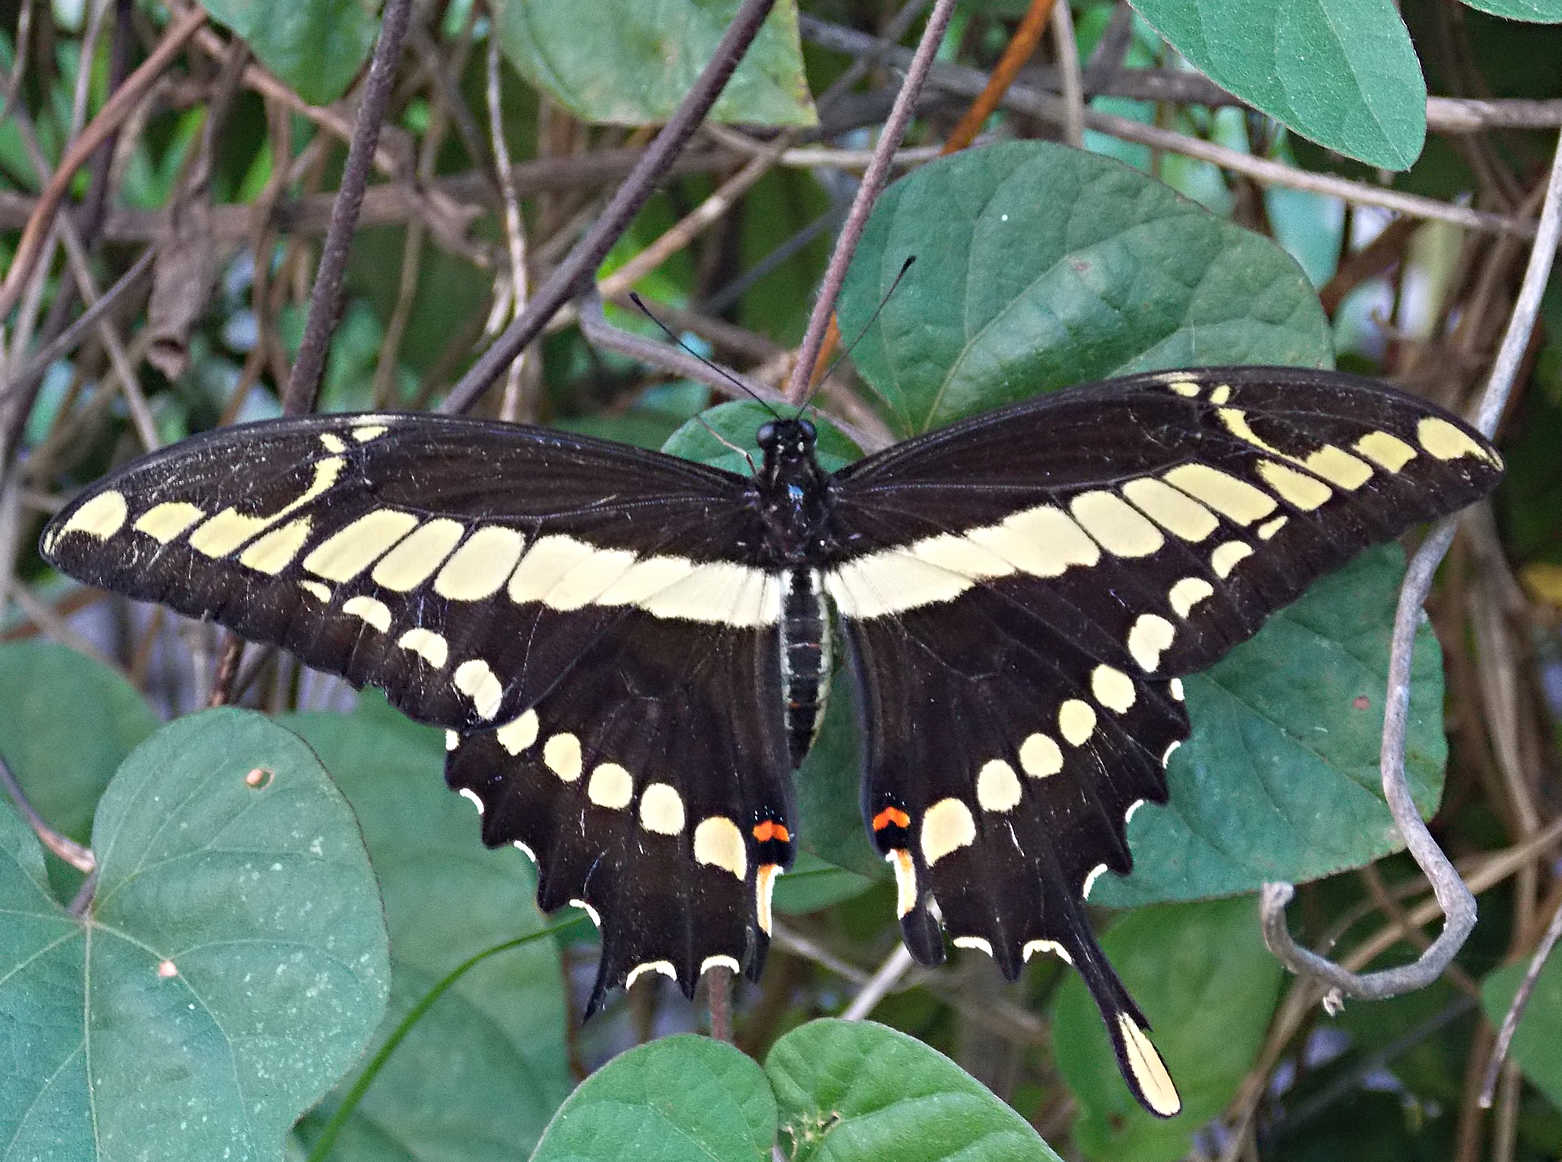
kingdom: Animalia
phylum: Arthropoda
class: Insecta
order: Lepidoptera
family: Papilionidae
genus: Papilio
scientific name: Papilio thoas
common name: King swallowtail
